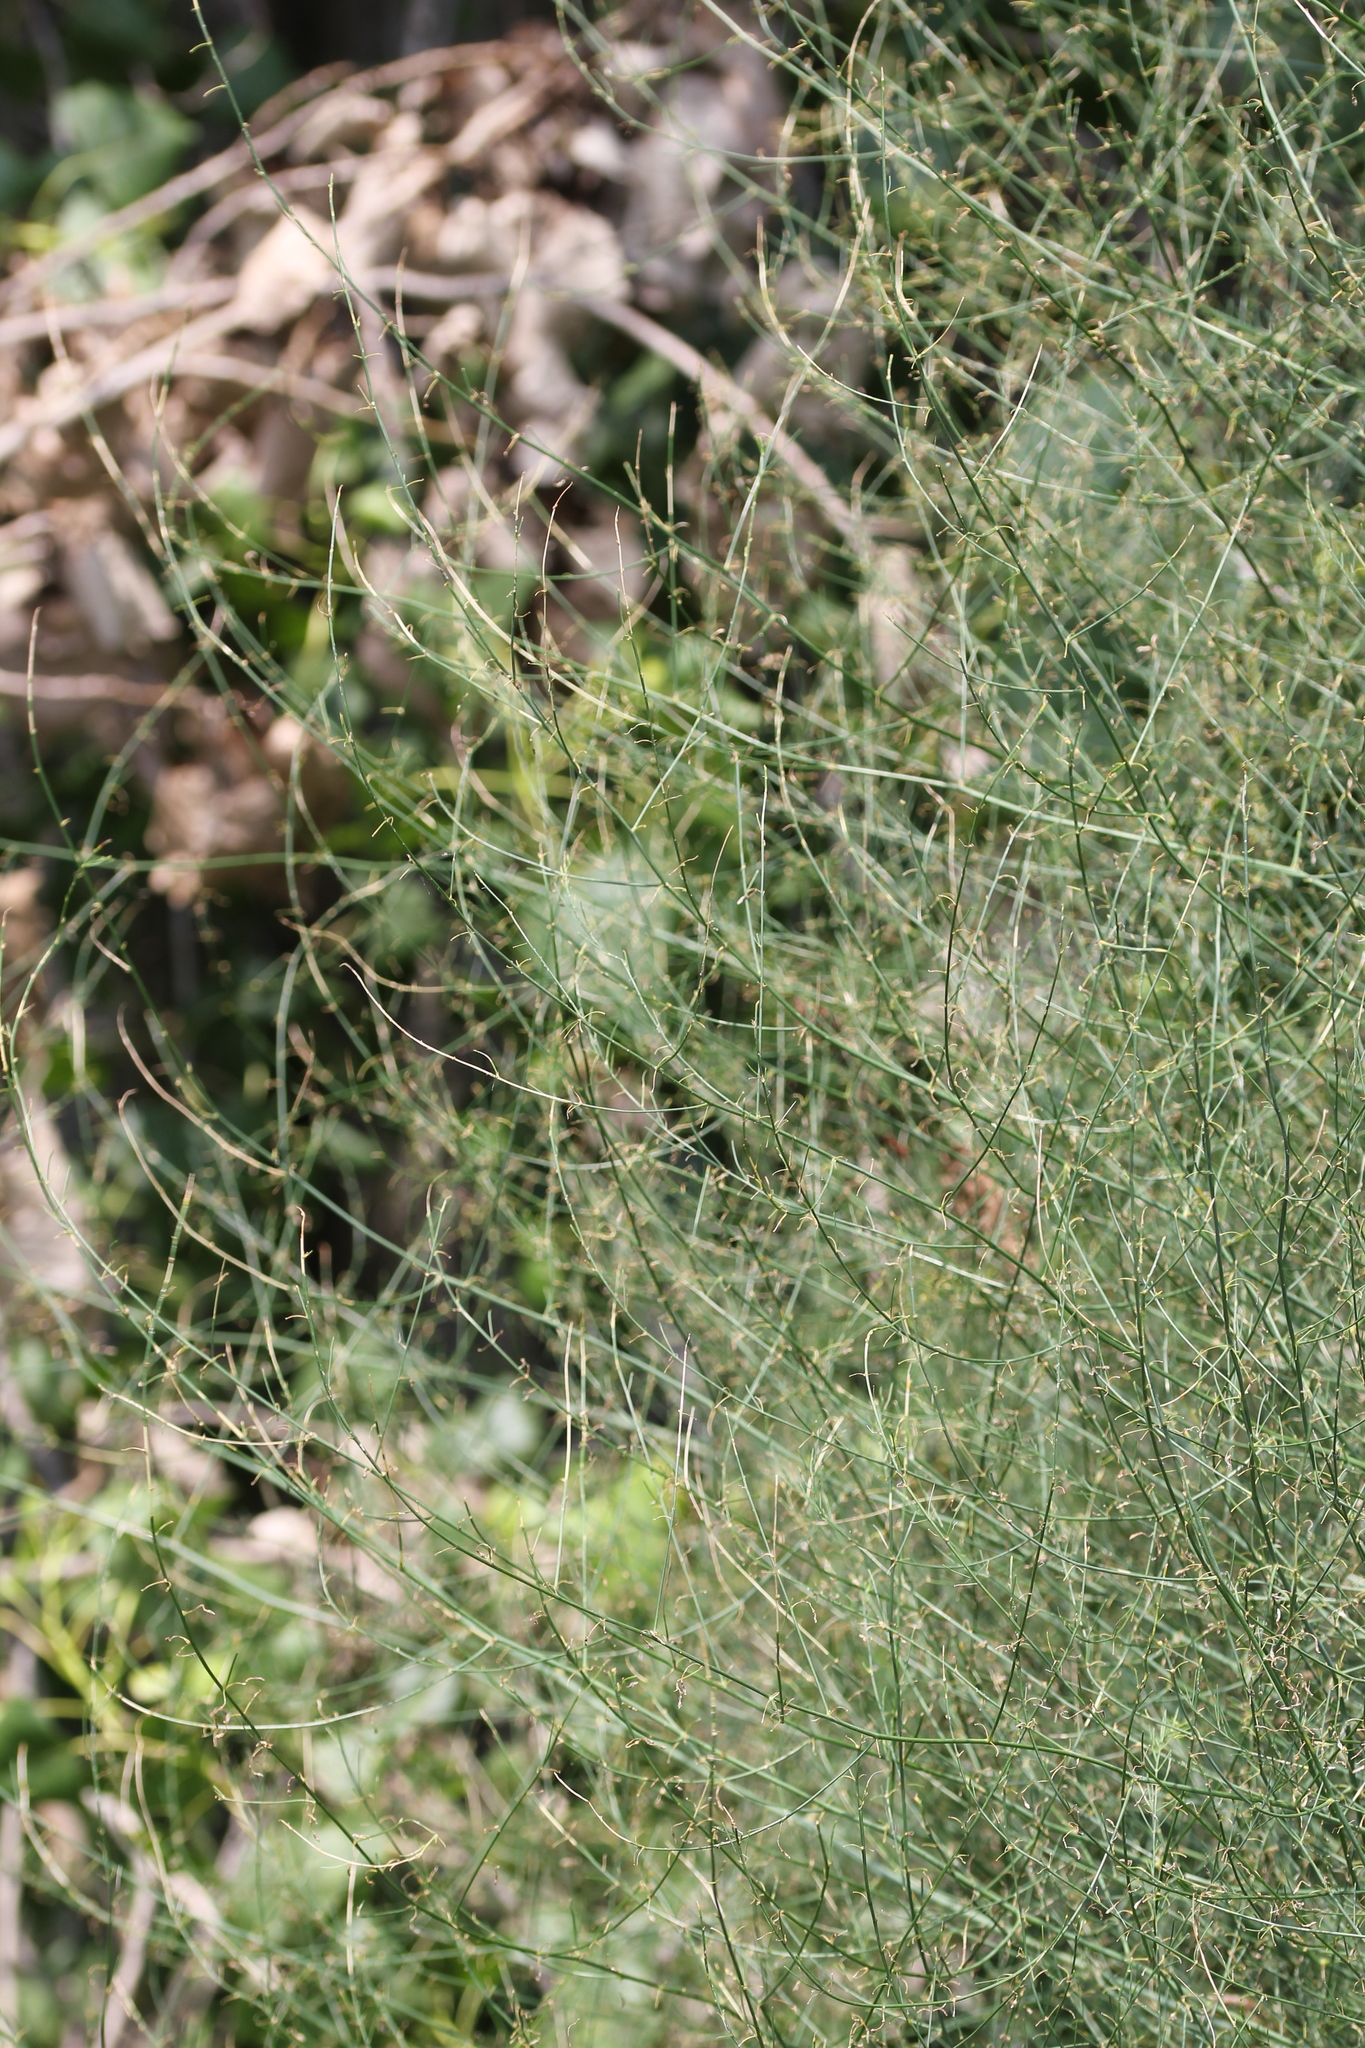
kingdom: Plantae
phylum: Tracheophyta
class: Liliopsida
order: Asparagales
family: Asparagaceae
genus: Asparagus
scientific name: Asparagus officinalis
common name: Garden asparagus
